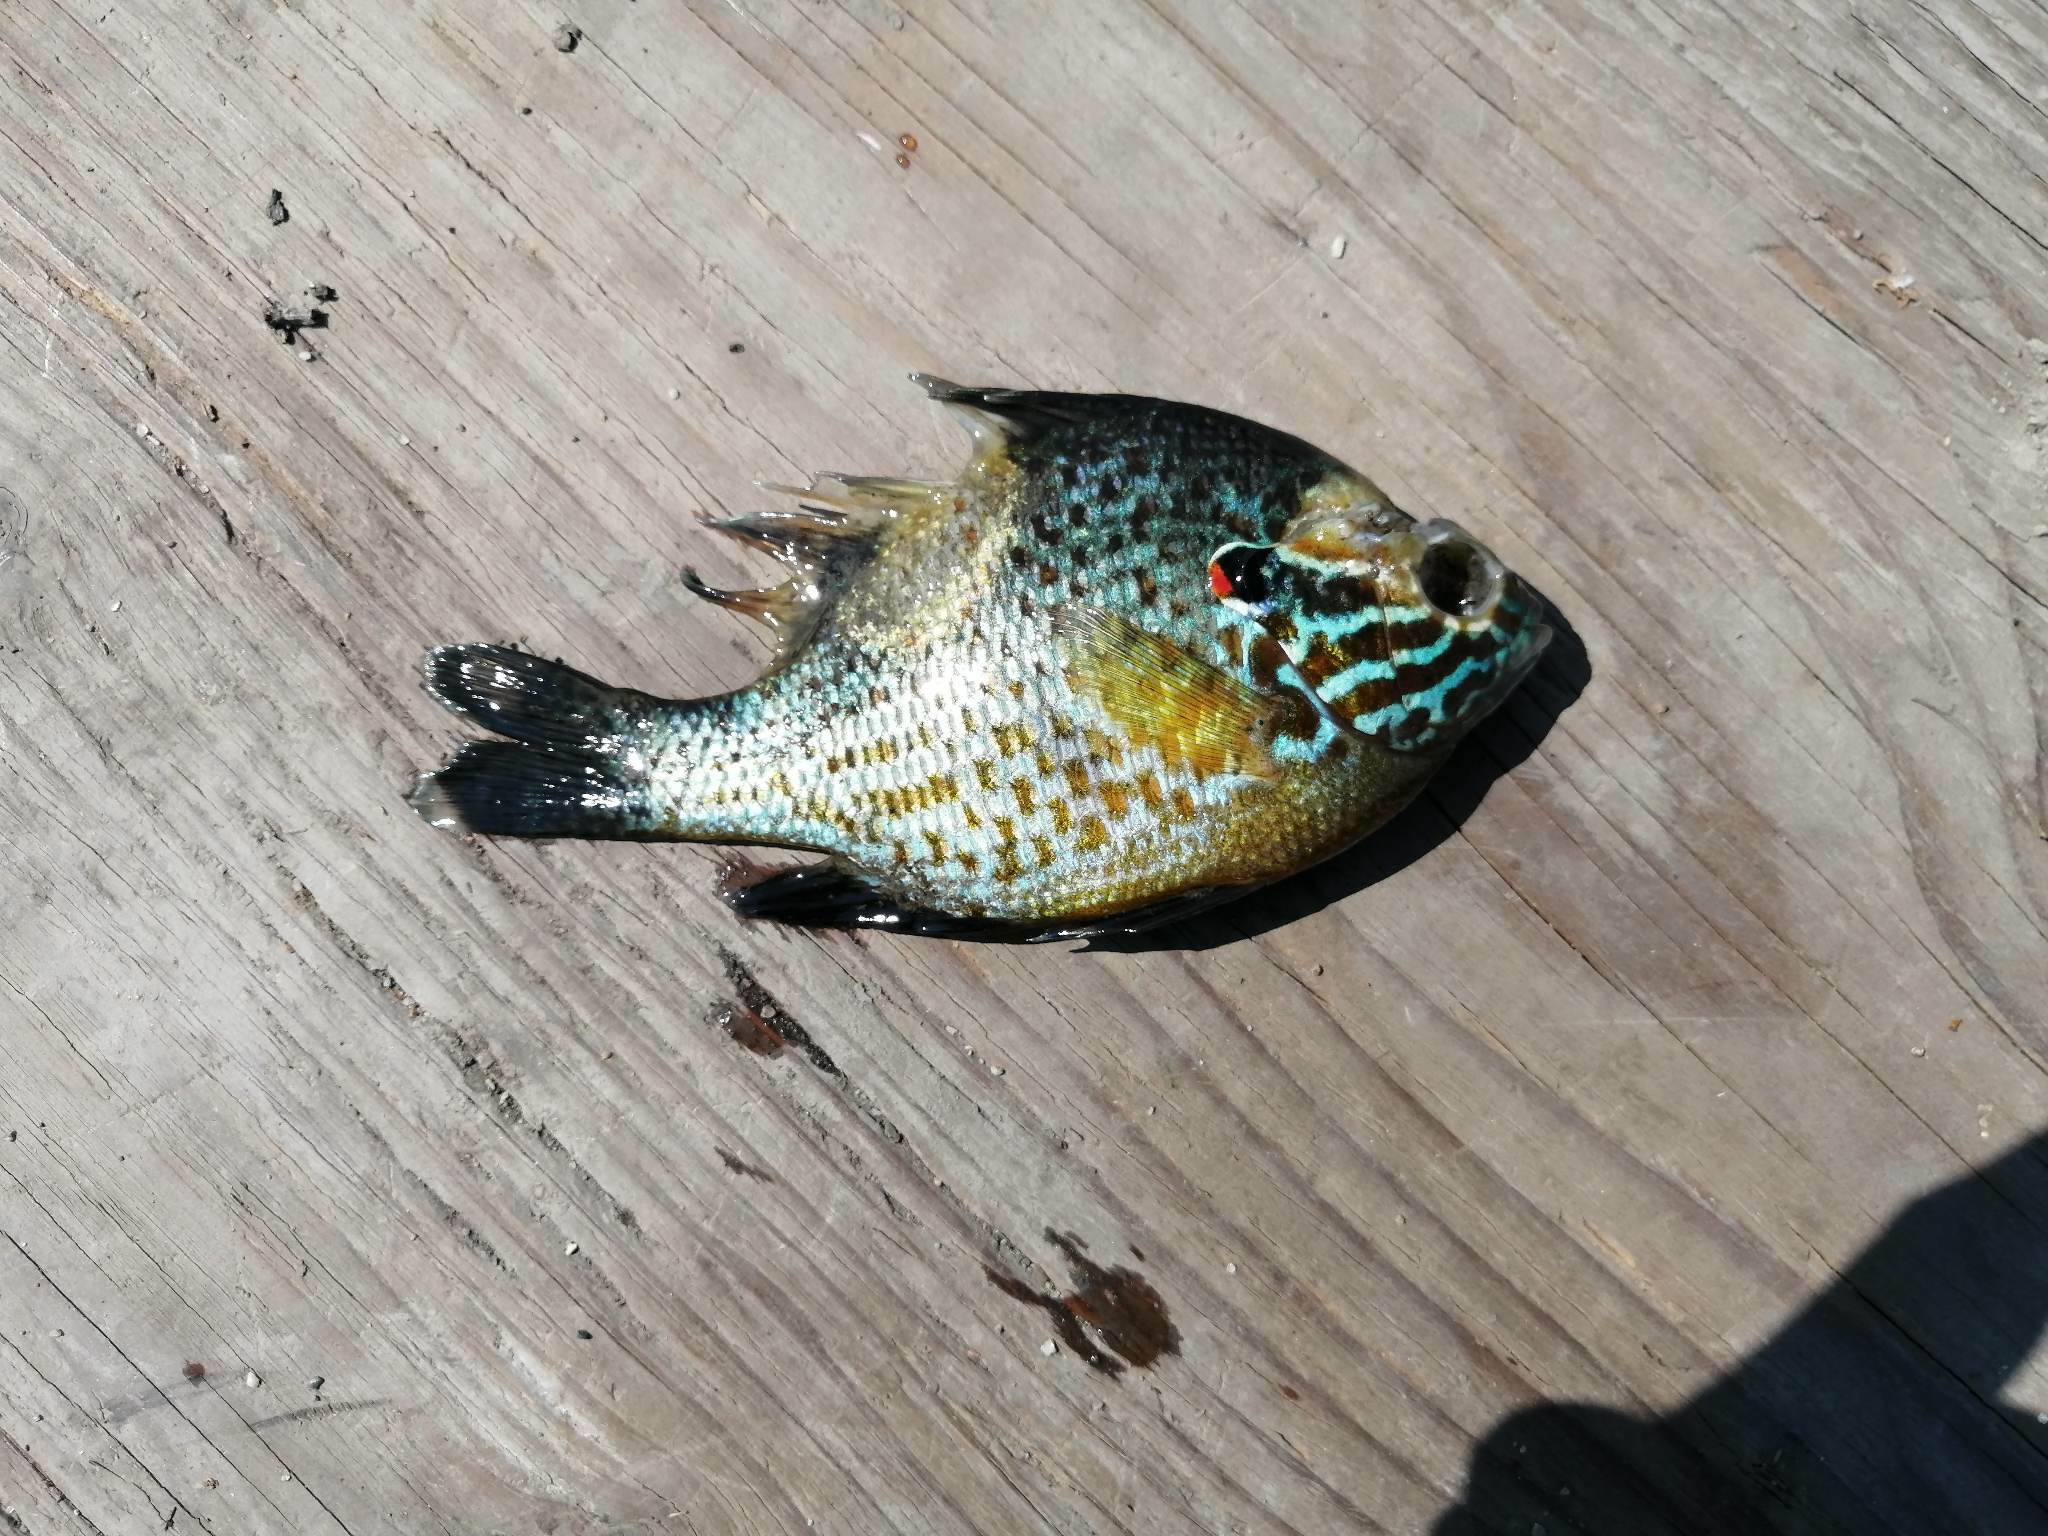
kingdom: Animalia
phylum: Chordata
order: Perciformes
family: Centrarchidae
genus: Lepomis
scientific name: Lepomis gibbosus
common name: Pumpkinseed
